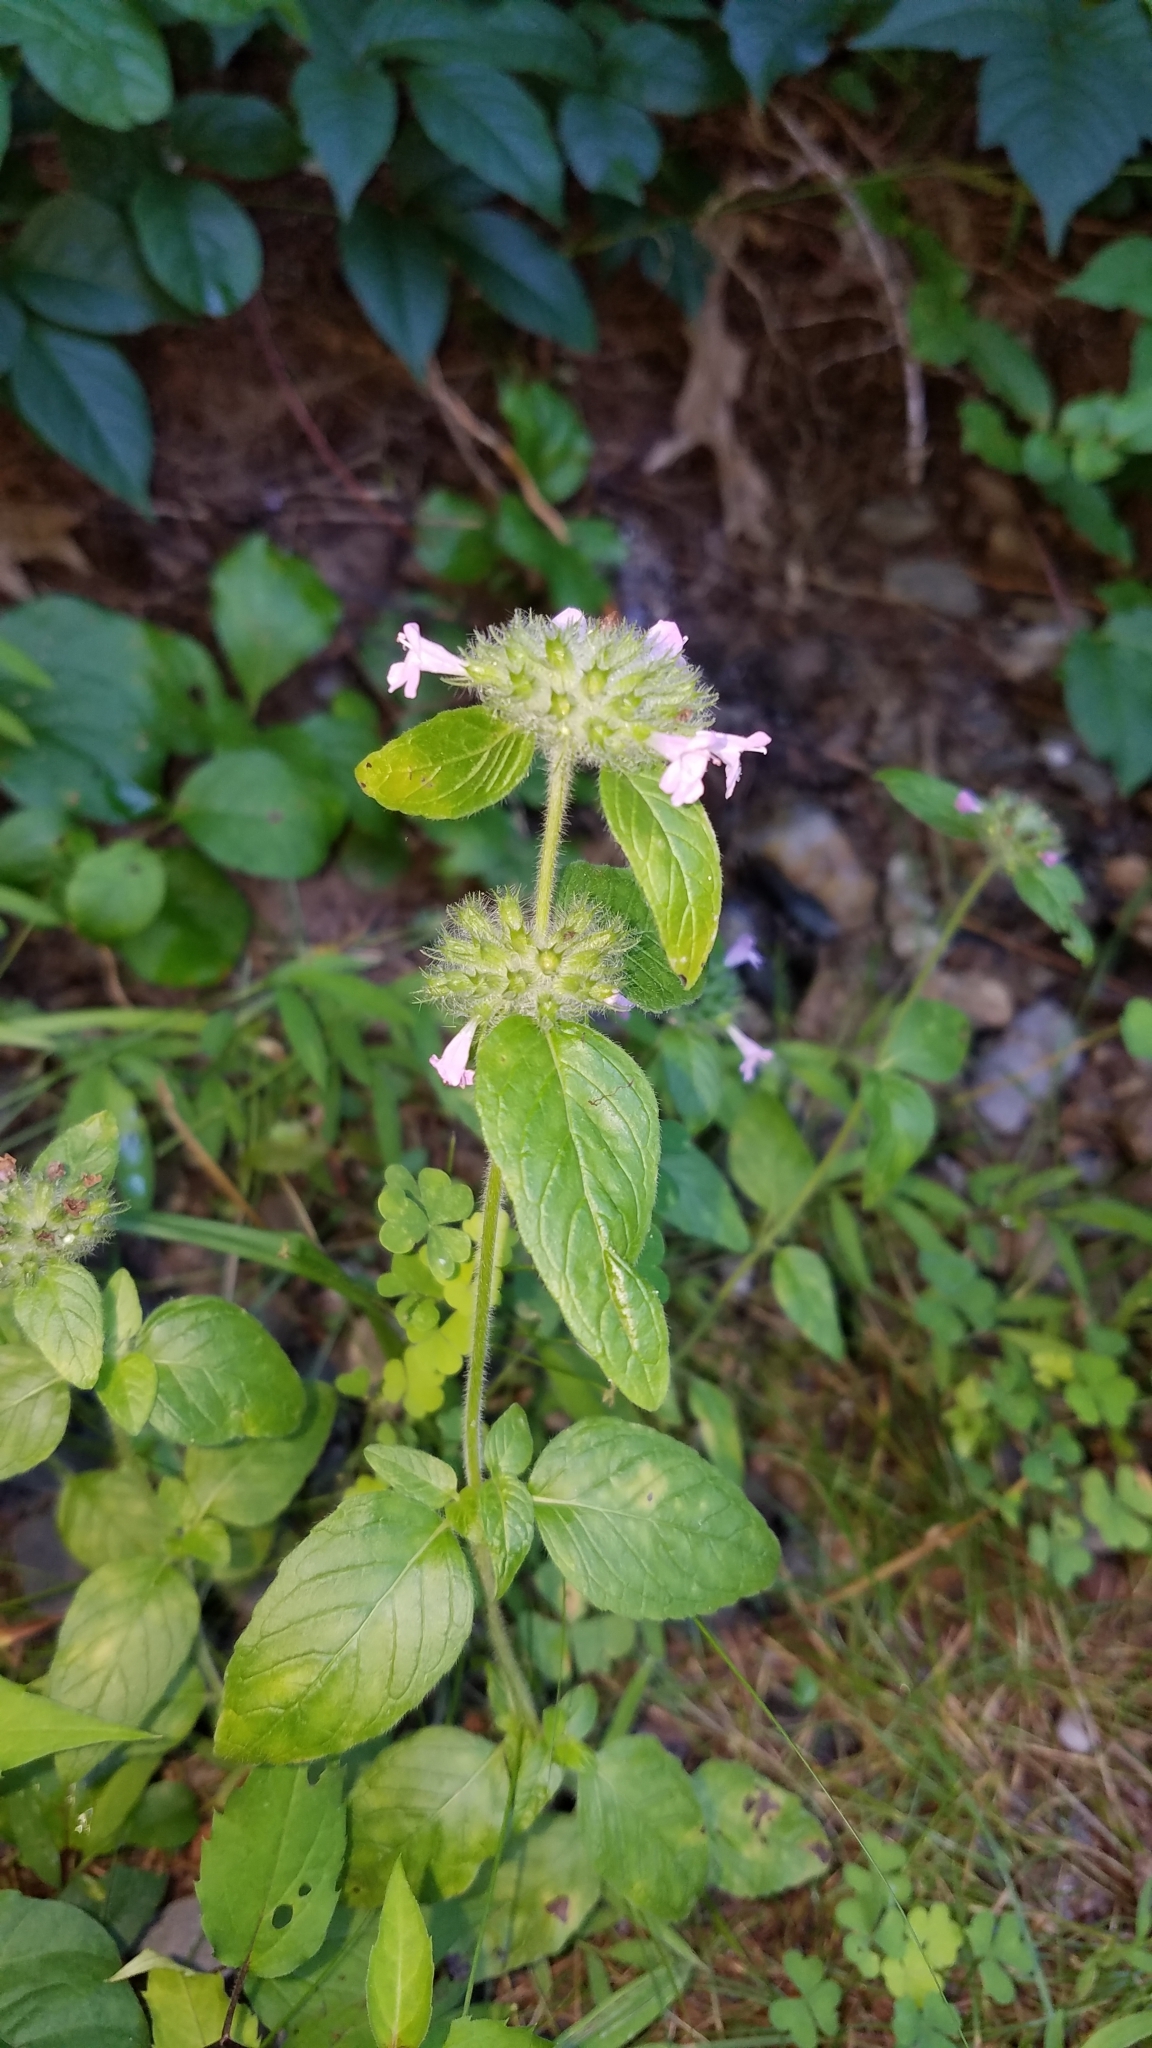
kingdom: Plantae
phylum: Tracheophyta
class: Magnoliopsida
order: Lamiales
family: Lamiaceae
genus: Clinopodium
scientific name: Clinopodium vulgare
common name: Wild basil
